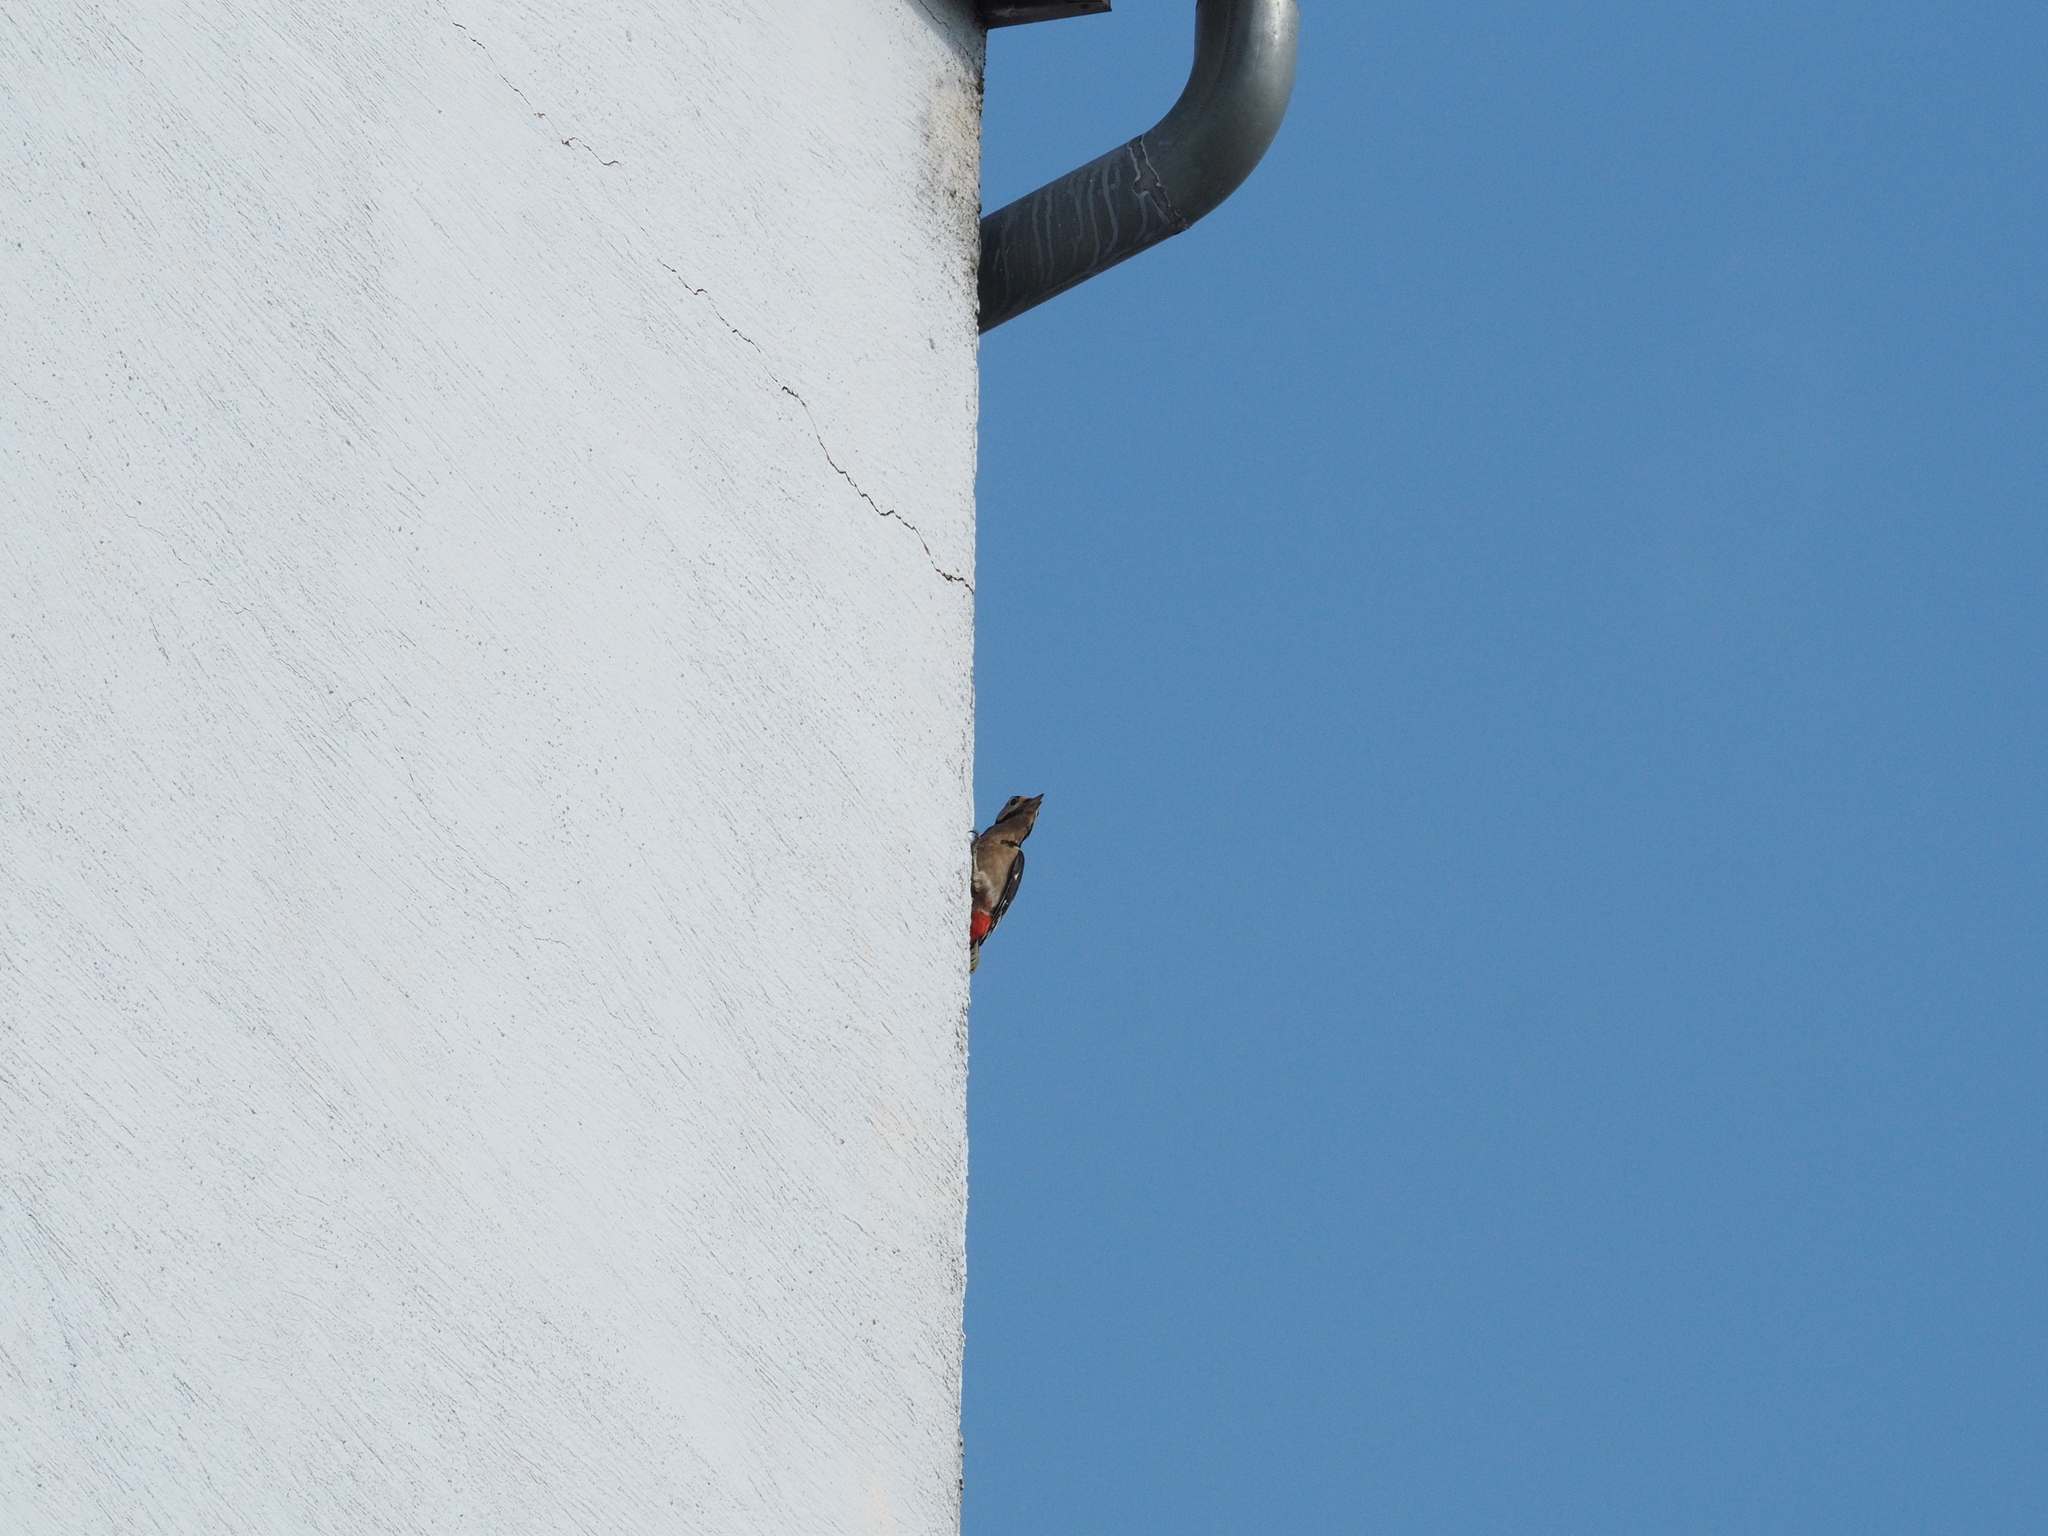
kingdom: Animalia
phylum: Chordata
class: Aves
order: Piciformes
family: Picidae
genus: Dendrocopos
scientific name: Dendrocopos major
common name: Great spotted woodpecker
